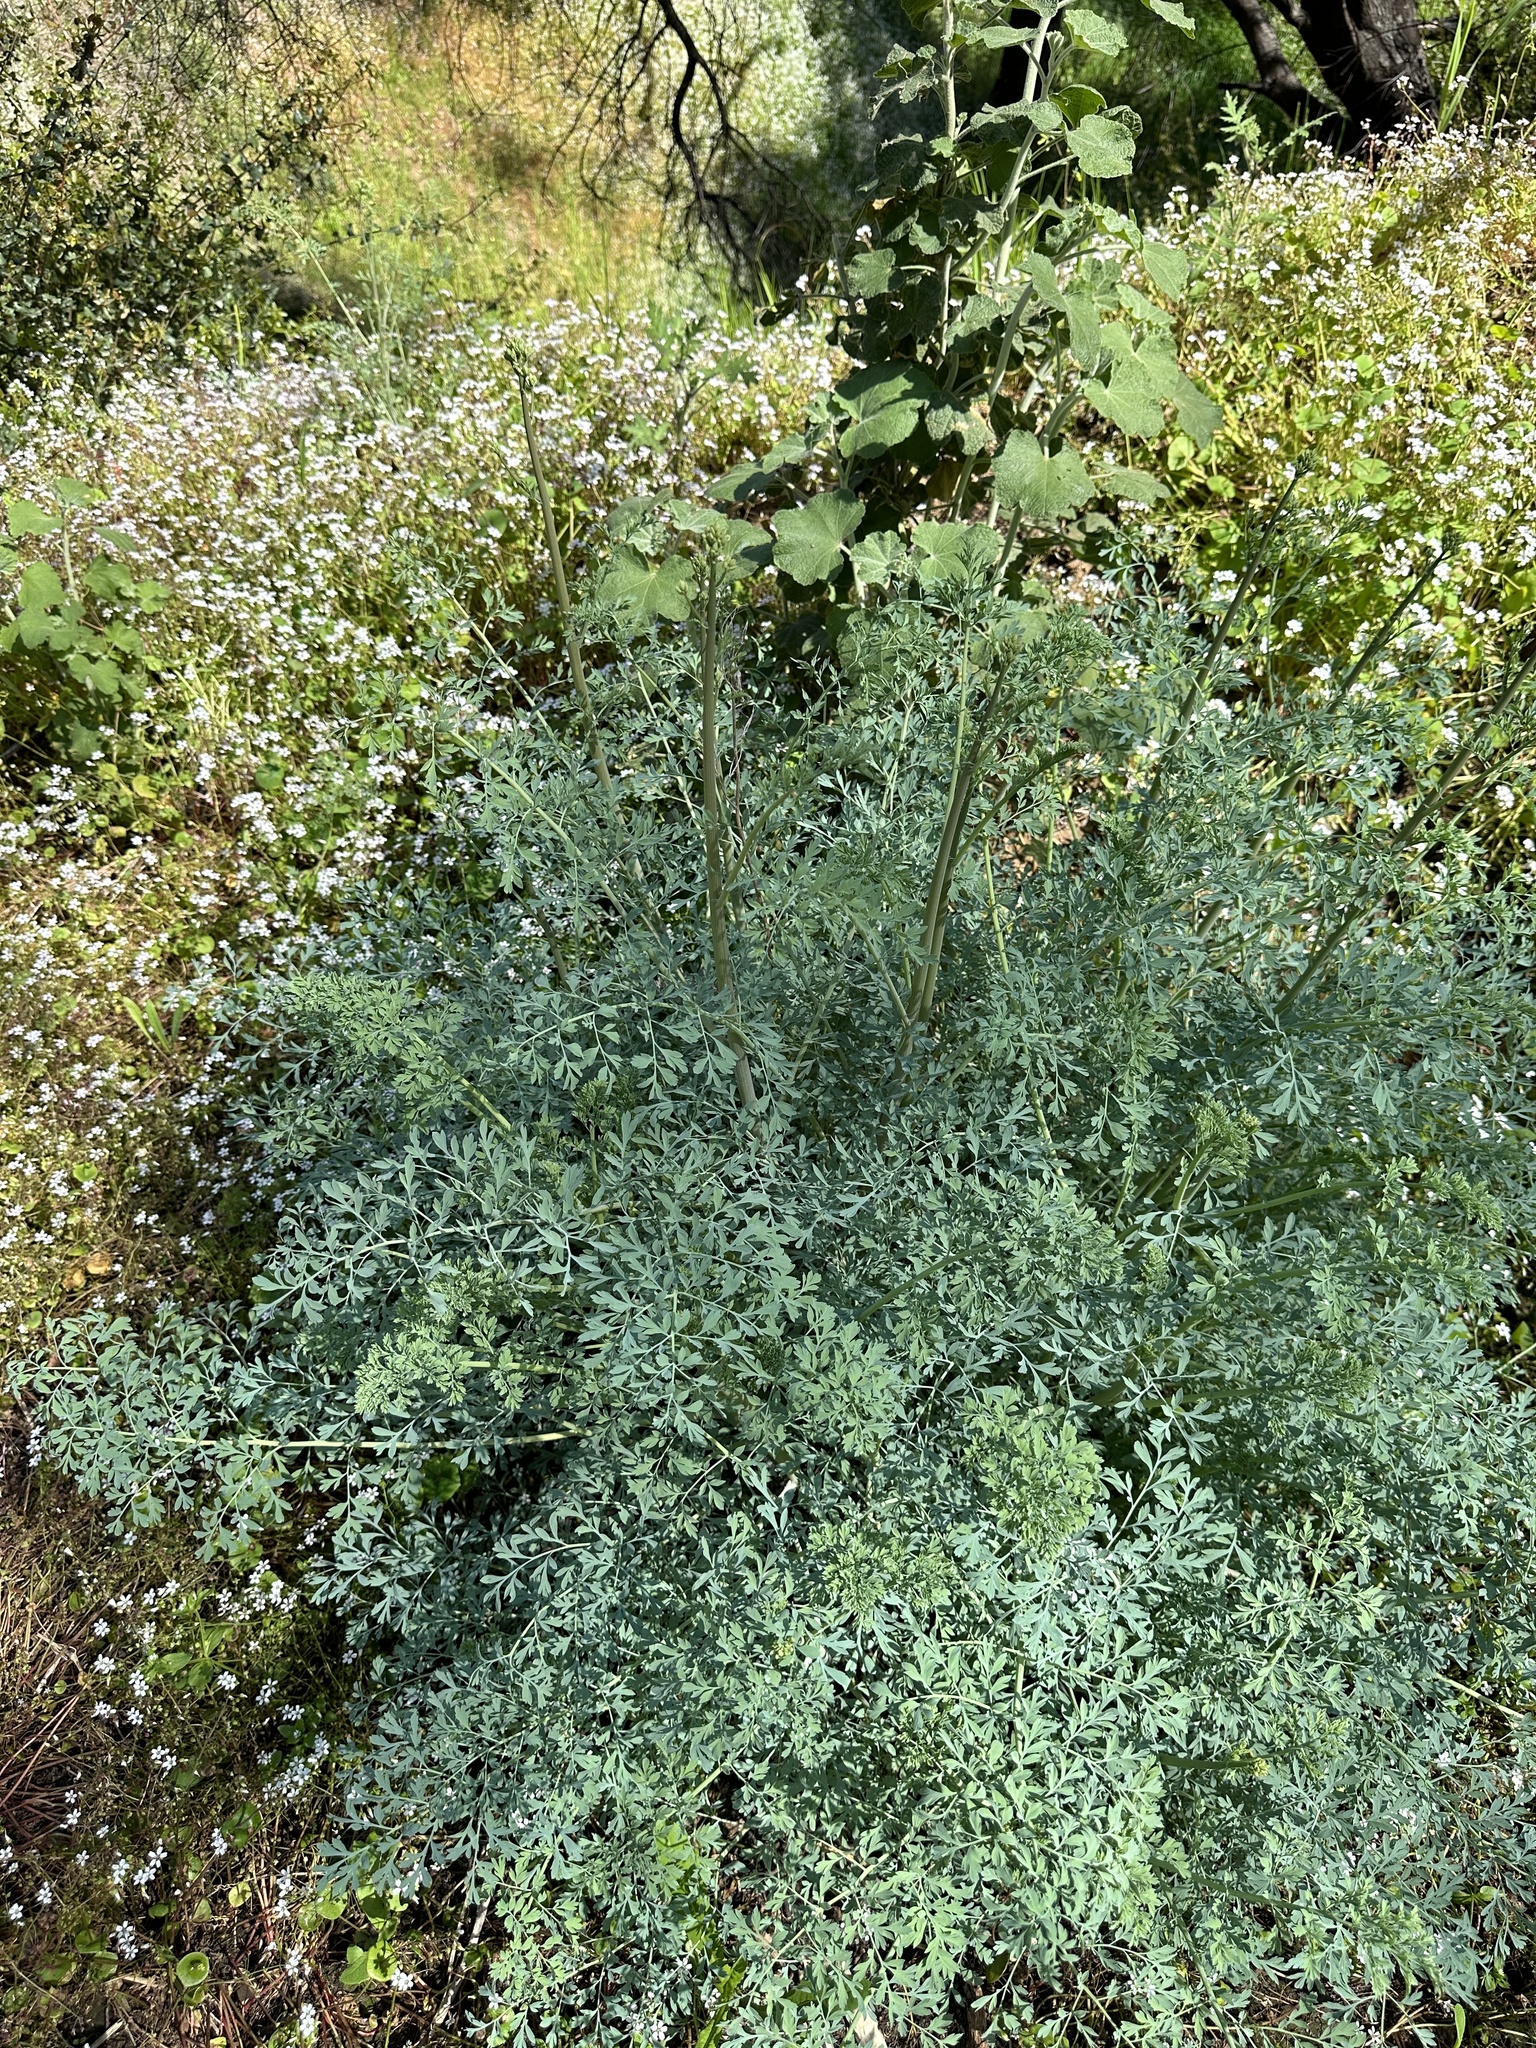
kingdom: Plantae
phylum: Tracheophyta
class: Magnoliopsida
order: Ranunculales
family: Papaveraceae
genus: Ehrendorferia
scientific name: Ehrendorferia chrysantha
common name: Golden eardrops
